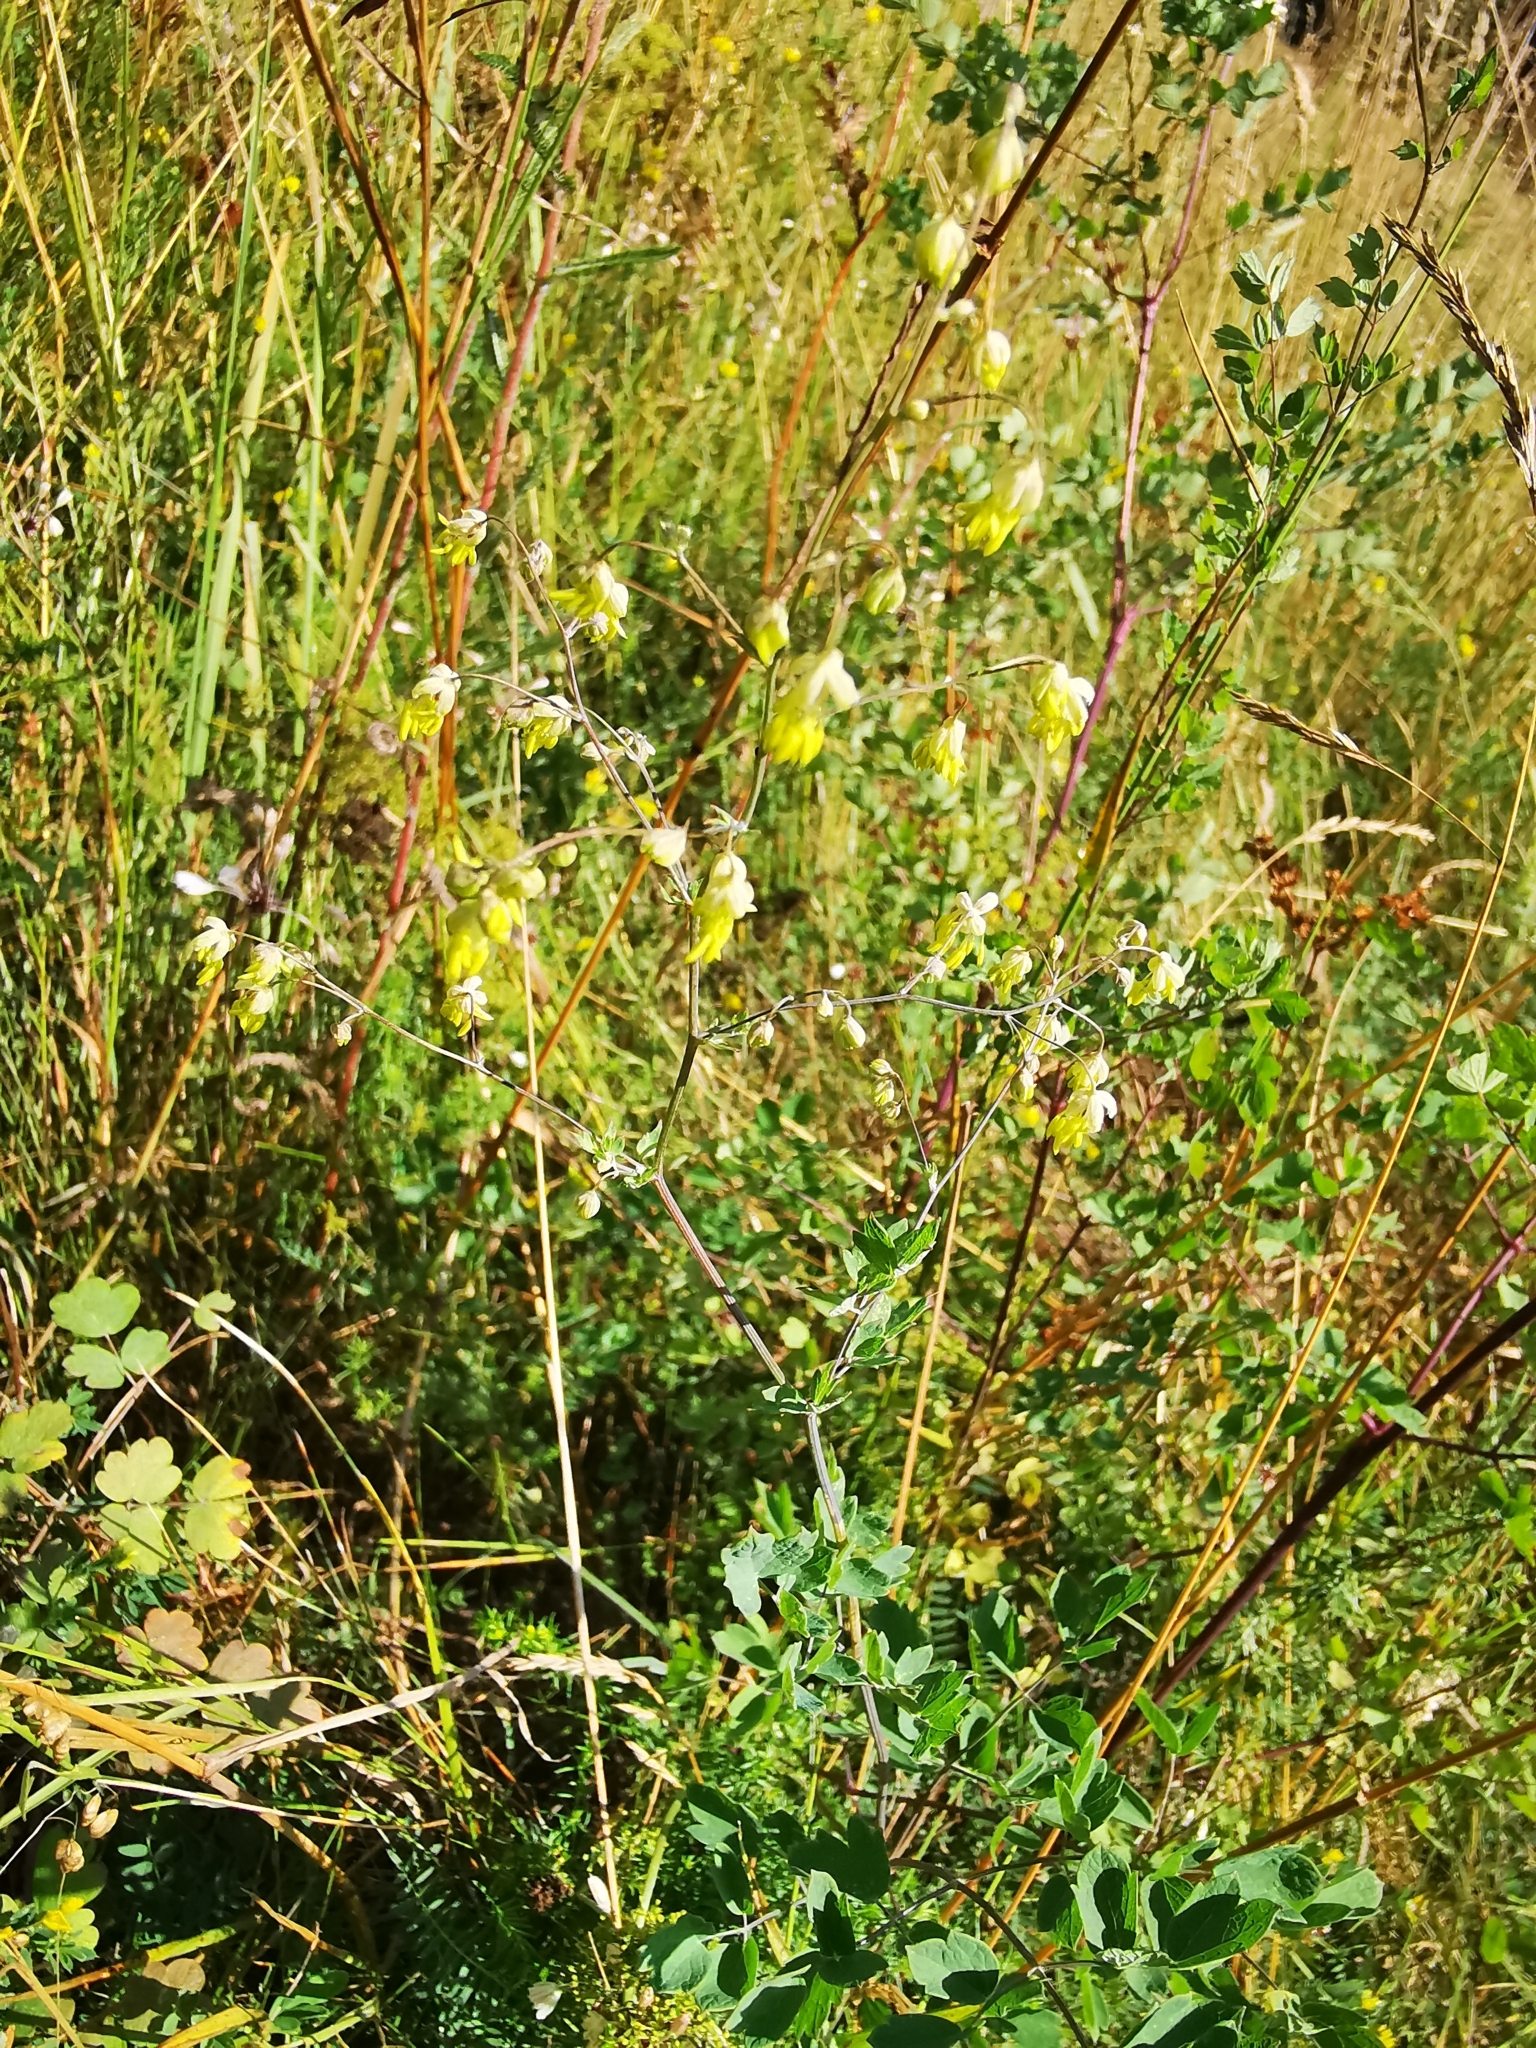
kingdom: Plantae
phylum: Tracheophyta
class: Magnoliopsida
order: Ranunculales
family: Ranunculaceae
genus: Thalictrum
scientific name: Thalictrum minus
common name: Lesser meadow-rue
